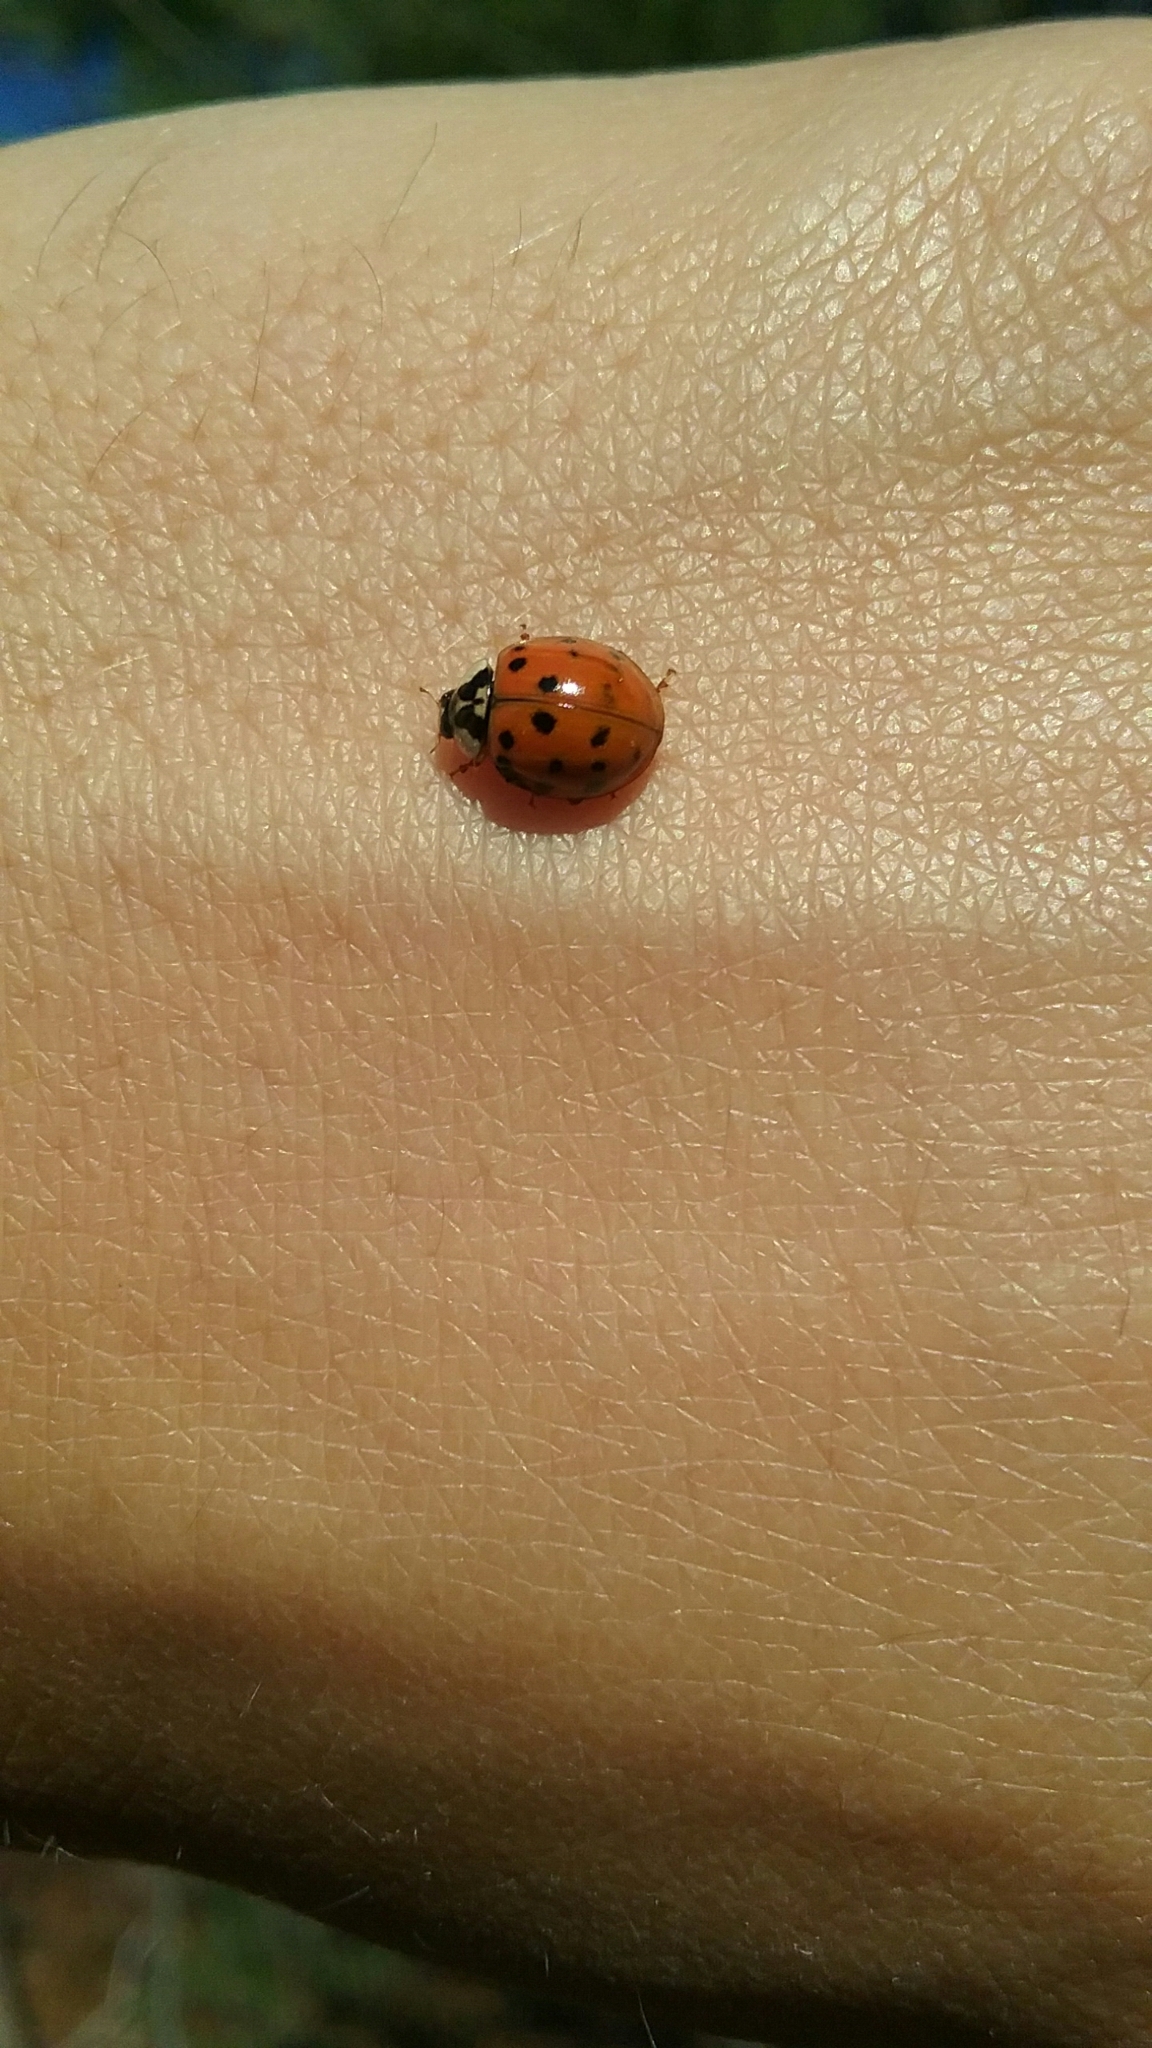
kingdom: Animalia
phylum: Arthropoda
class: Insecta
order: Coleoptera
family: Coccinellidae
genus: Harmonia
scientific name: Harmonia axyridis
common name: Harlequin ladybird
